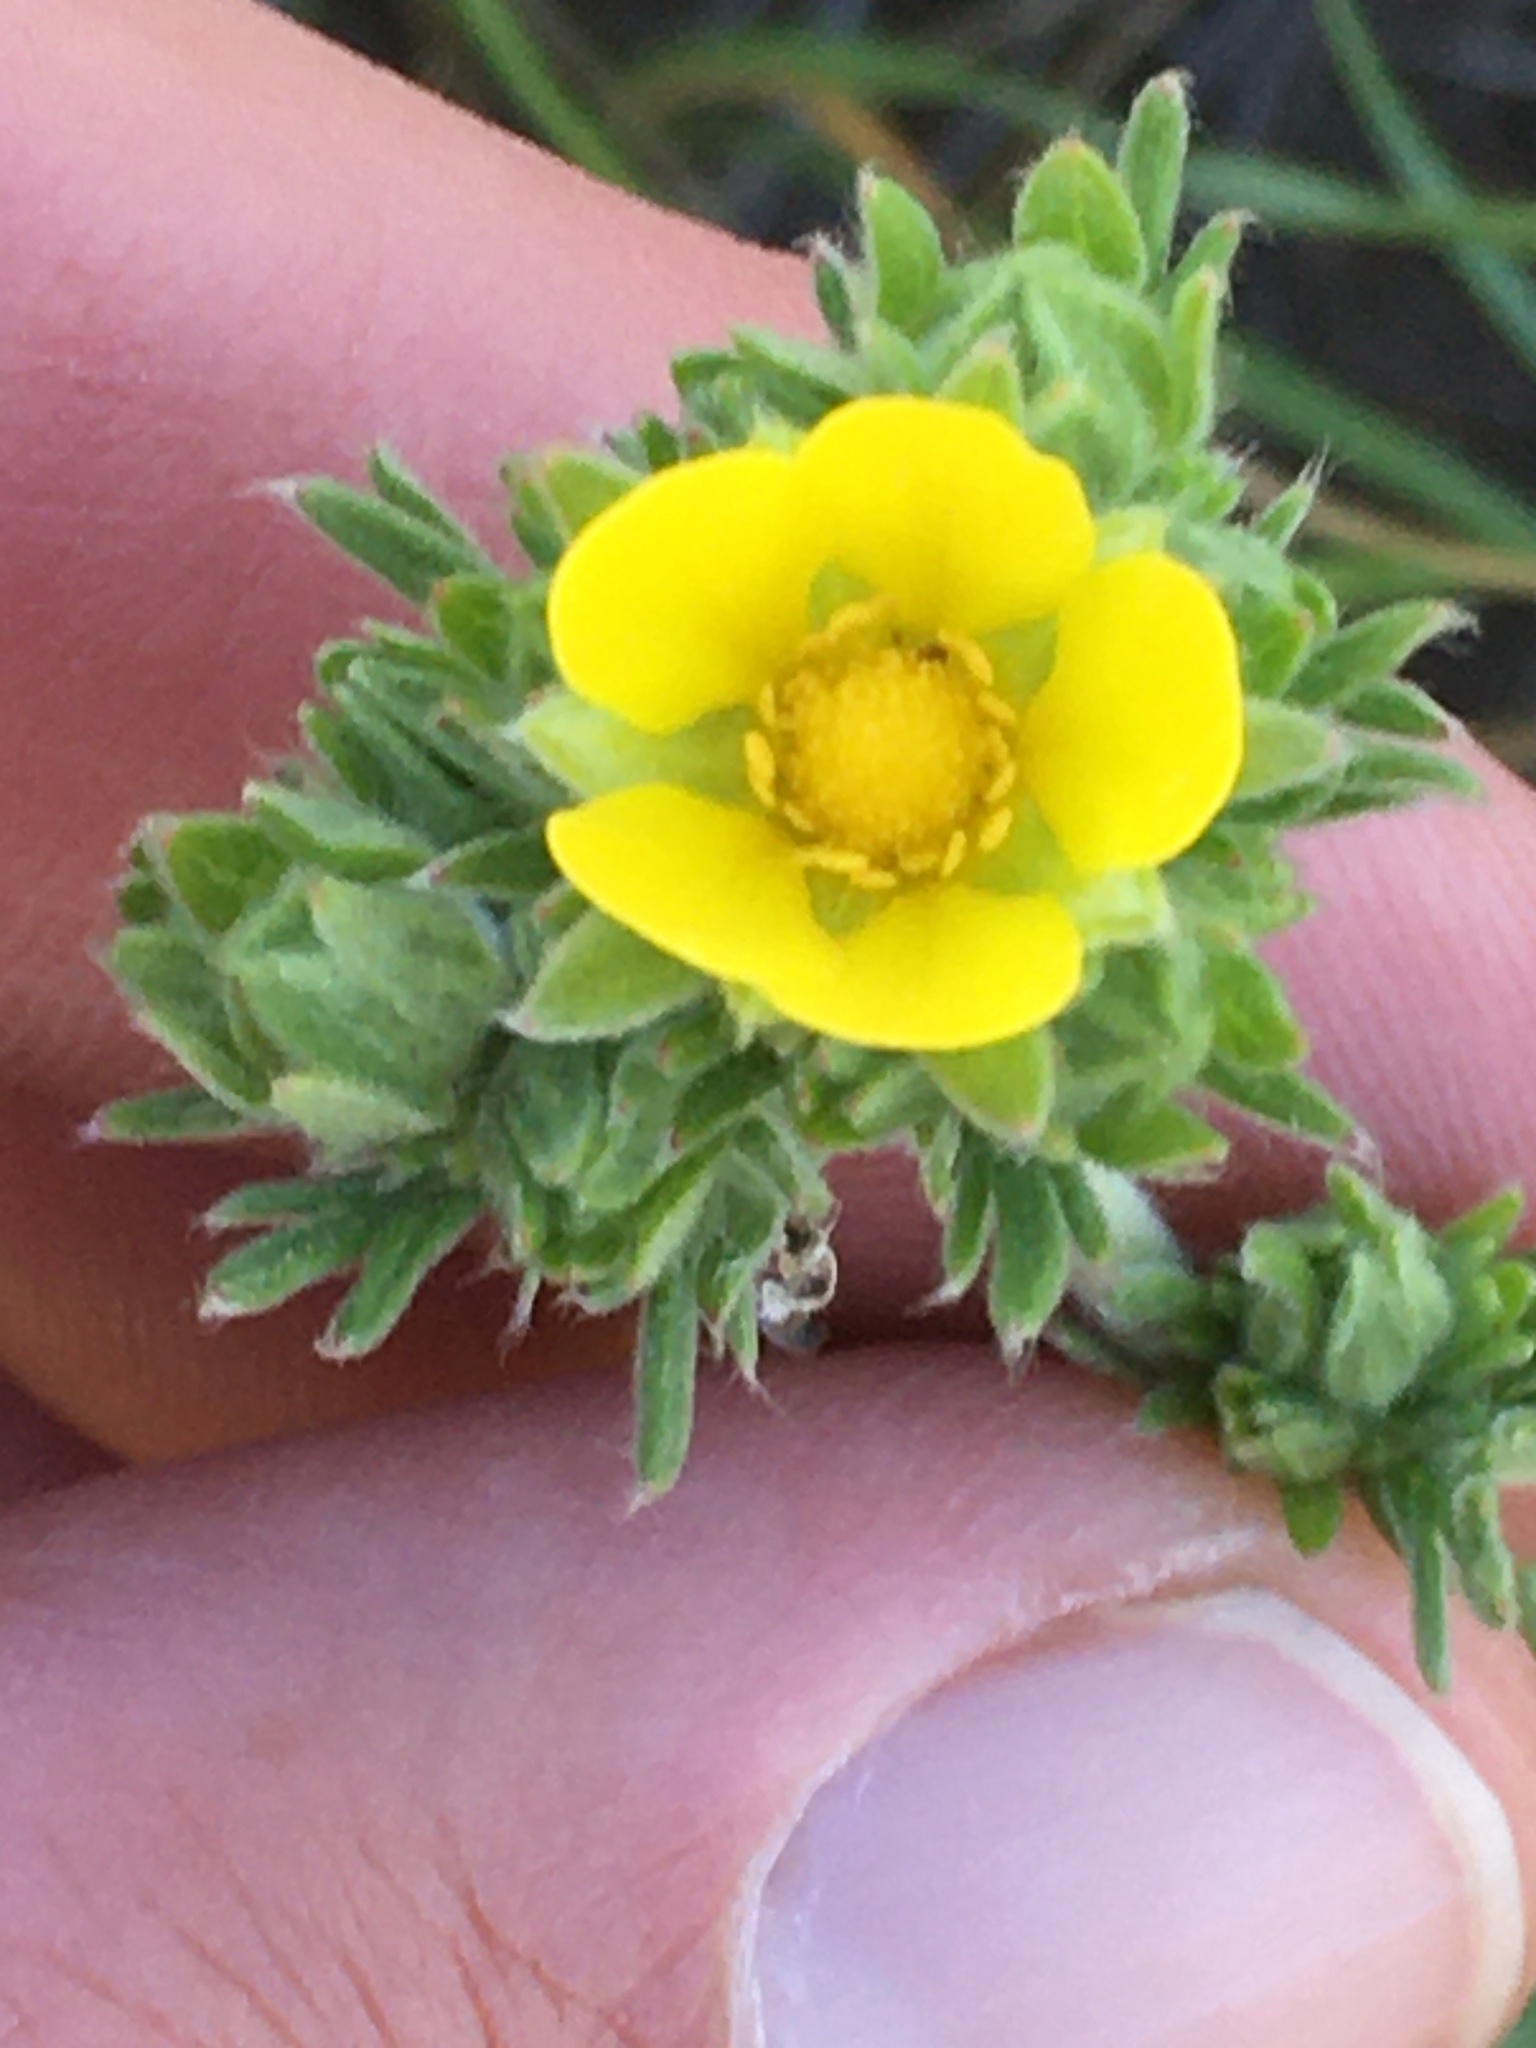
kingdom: Plantae
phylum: Tracheophyta
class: Magnoliopsida
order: Rosales
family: Rosaceae
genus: Potentilla
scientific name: Potentilla pensylvanica
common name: Pennsylvania cinquefoil
